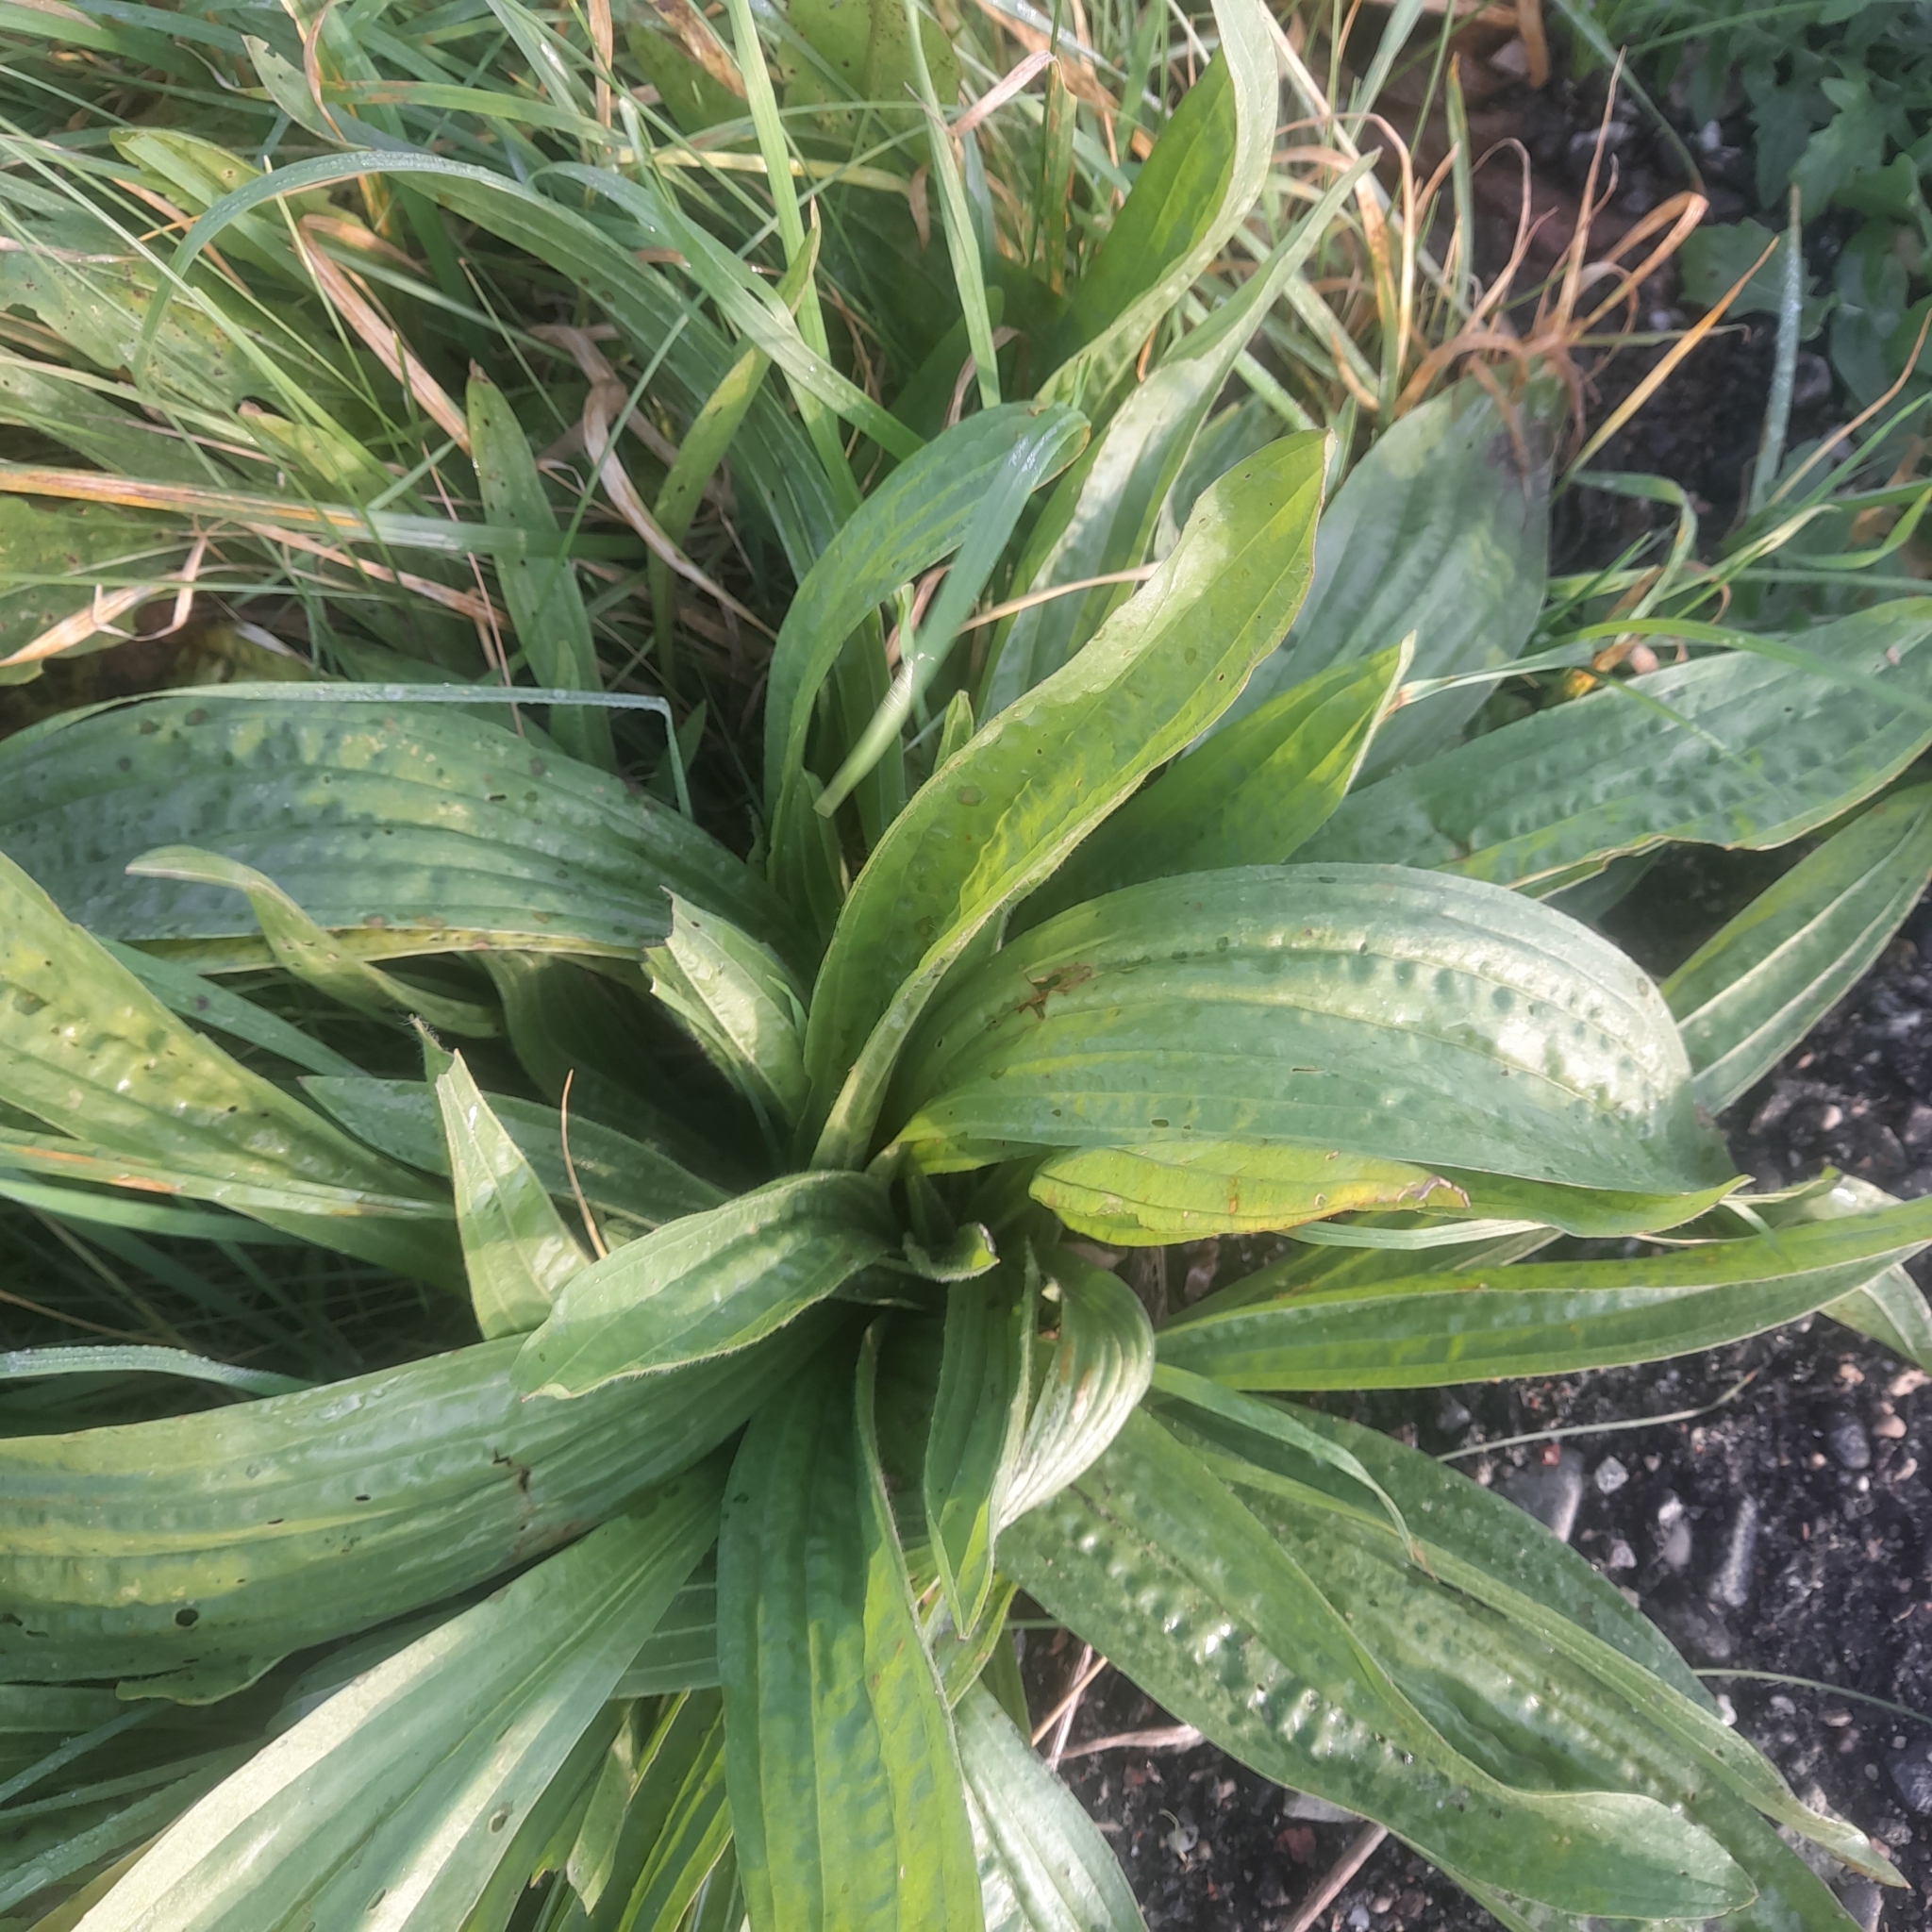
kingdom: Plantae
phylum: Tracheophyta
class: Magnoliopsida
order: Lamiales
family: Plantaginaceae
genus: Plantago
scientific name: Plantago lanceolata
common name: Ribwort plantain
